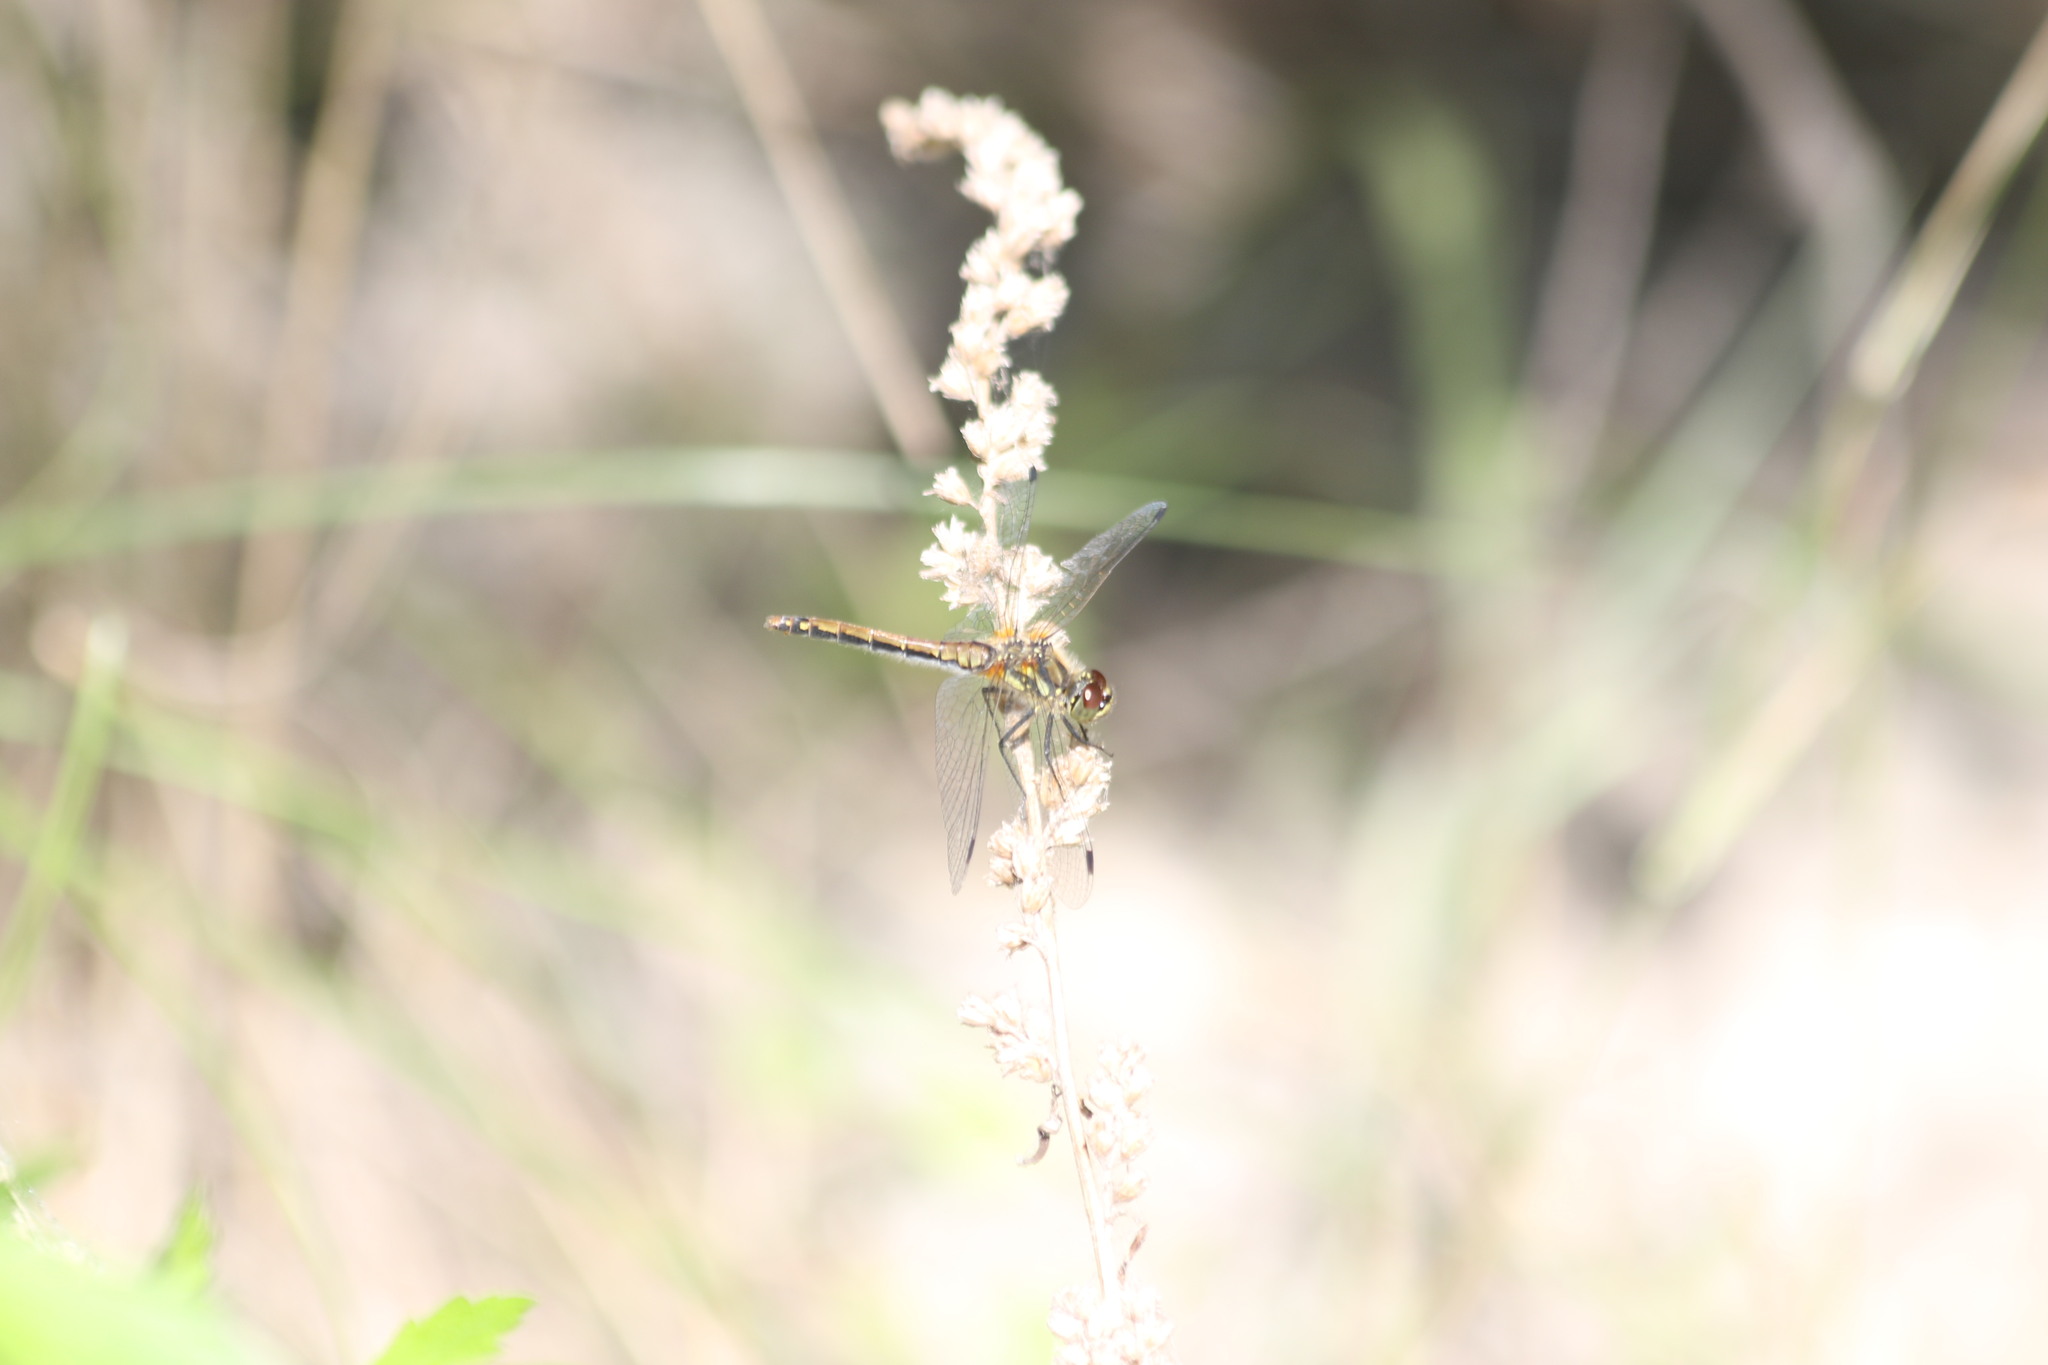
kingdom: Animalia
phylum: Arthropoda
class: Insecta
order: Odonata
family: Libellulidae
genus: Sympetrum
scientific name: Sympetrum danae
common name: Black darter
